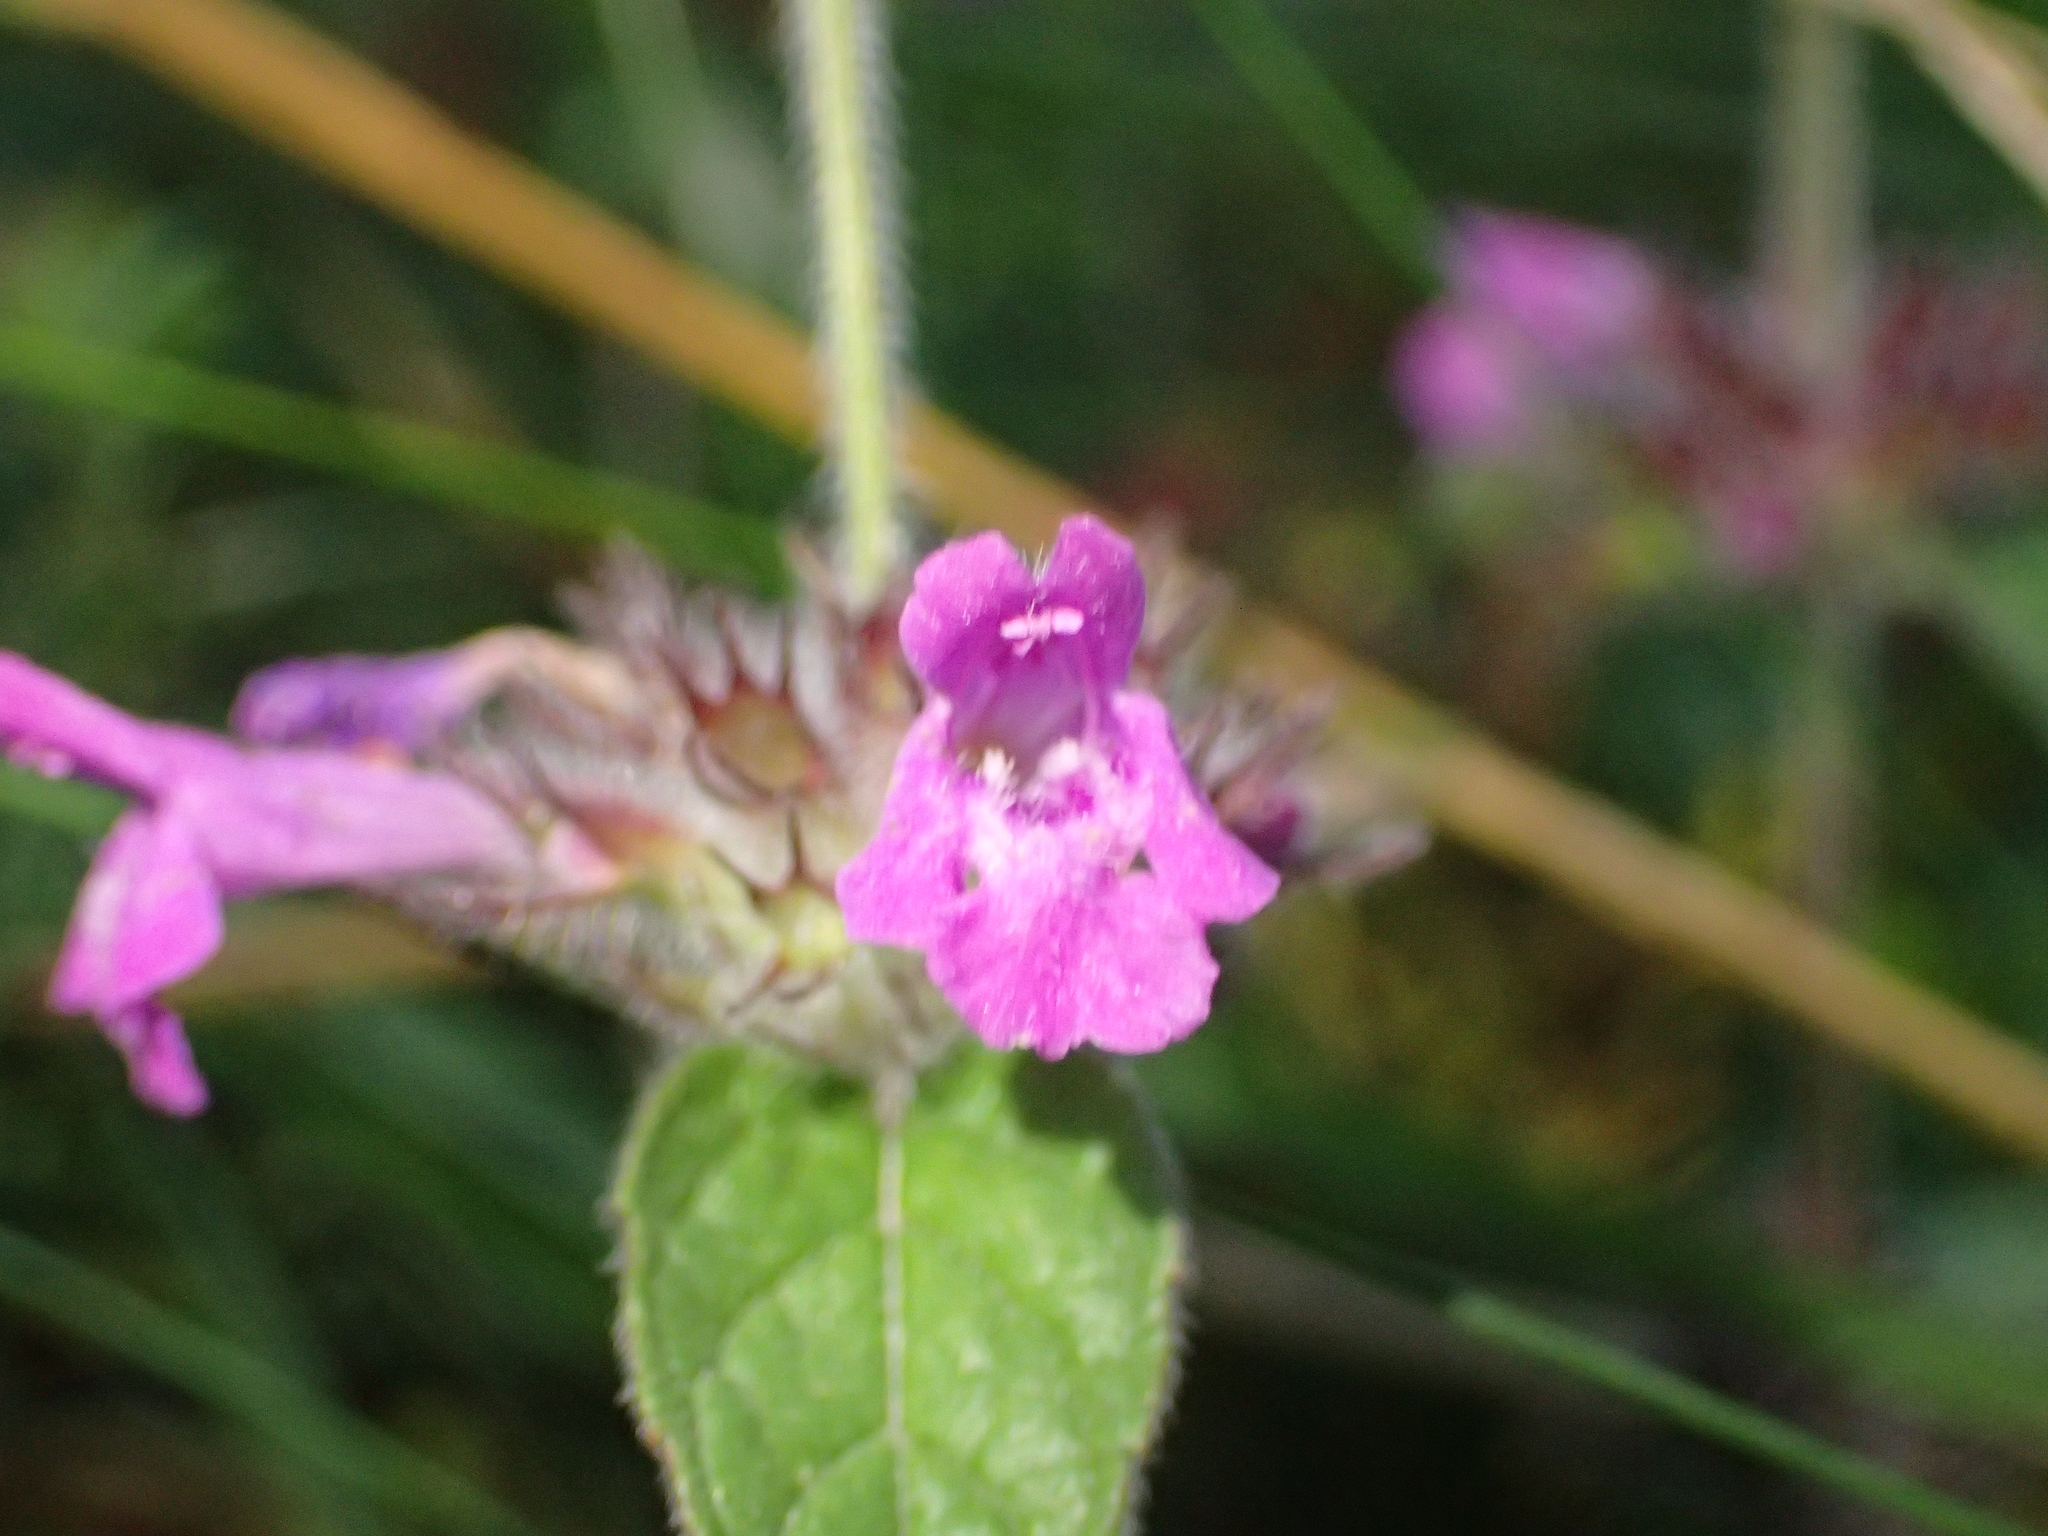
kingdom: Plantae
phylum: Tracheophyta
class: Magnoliopsida
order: Lamiales
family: Lamiaceae
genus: Clinopodium
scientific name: Clinopodium vulgare
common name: Wild basil
